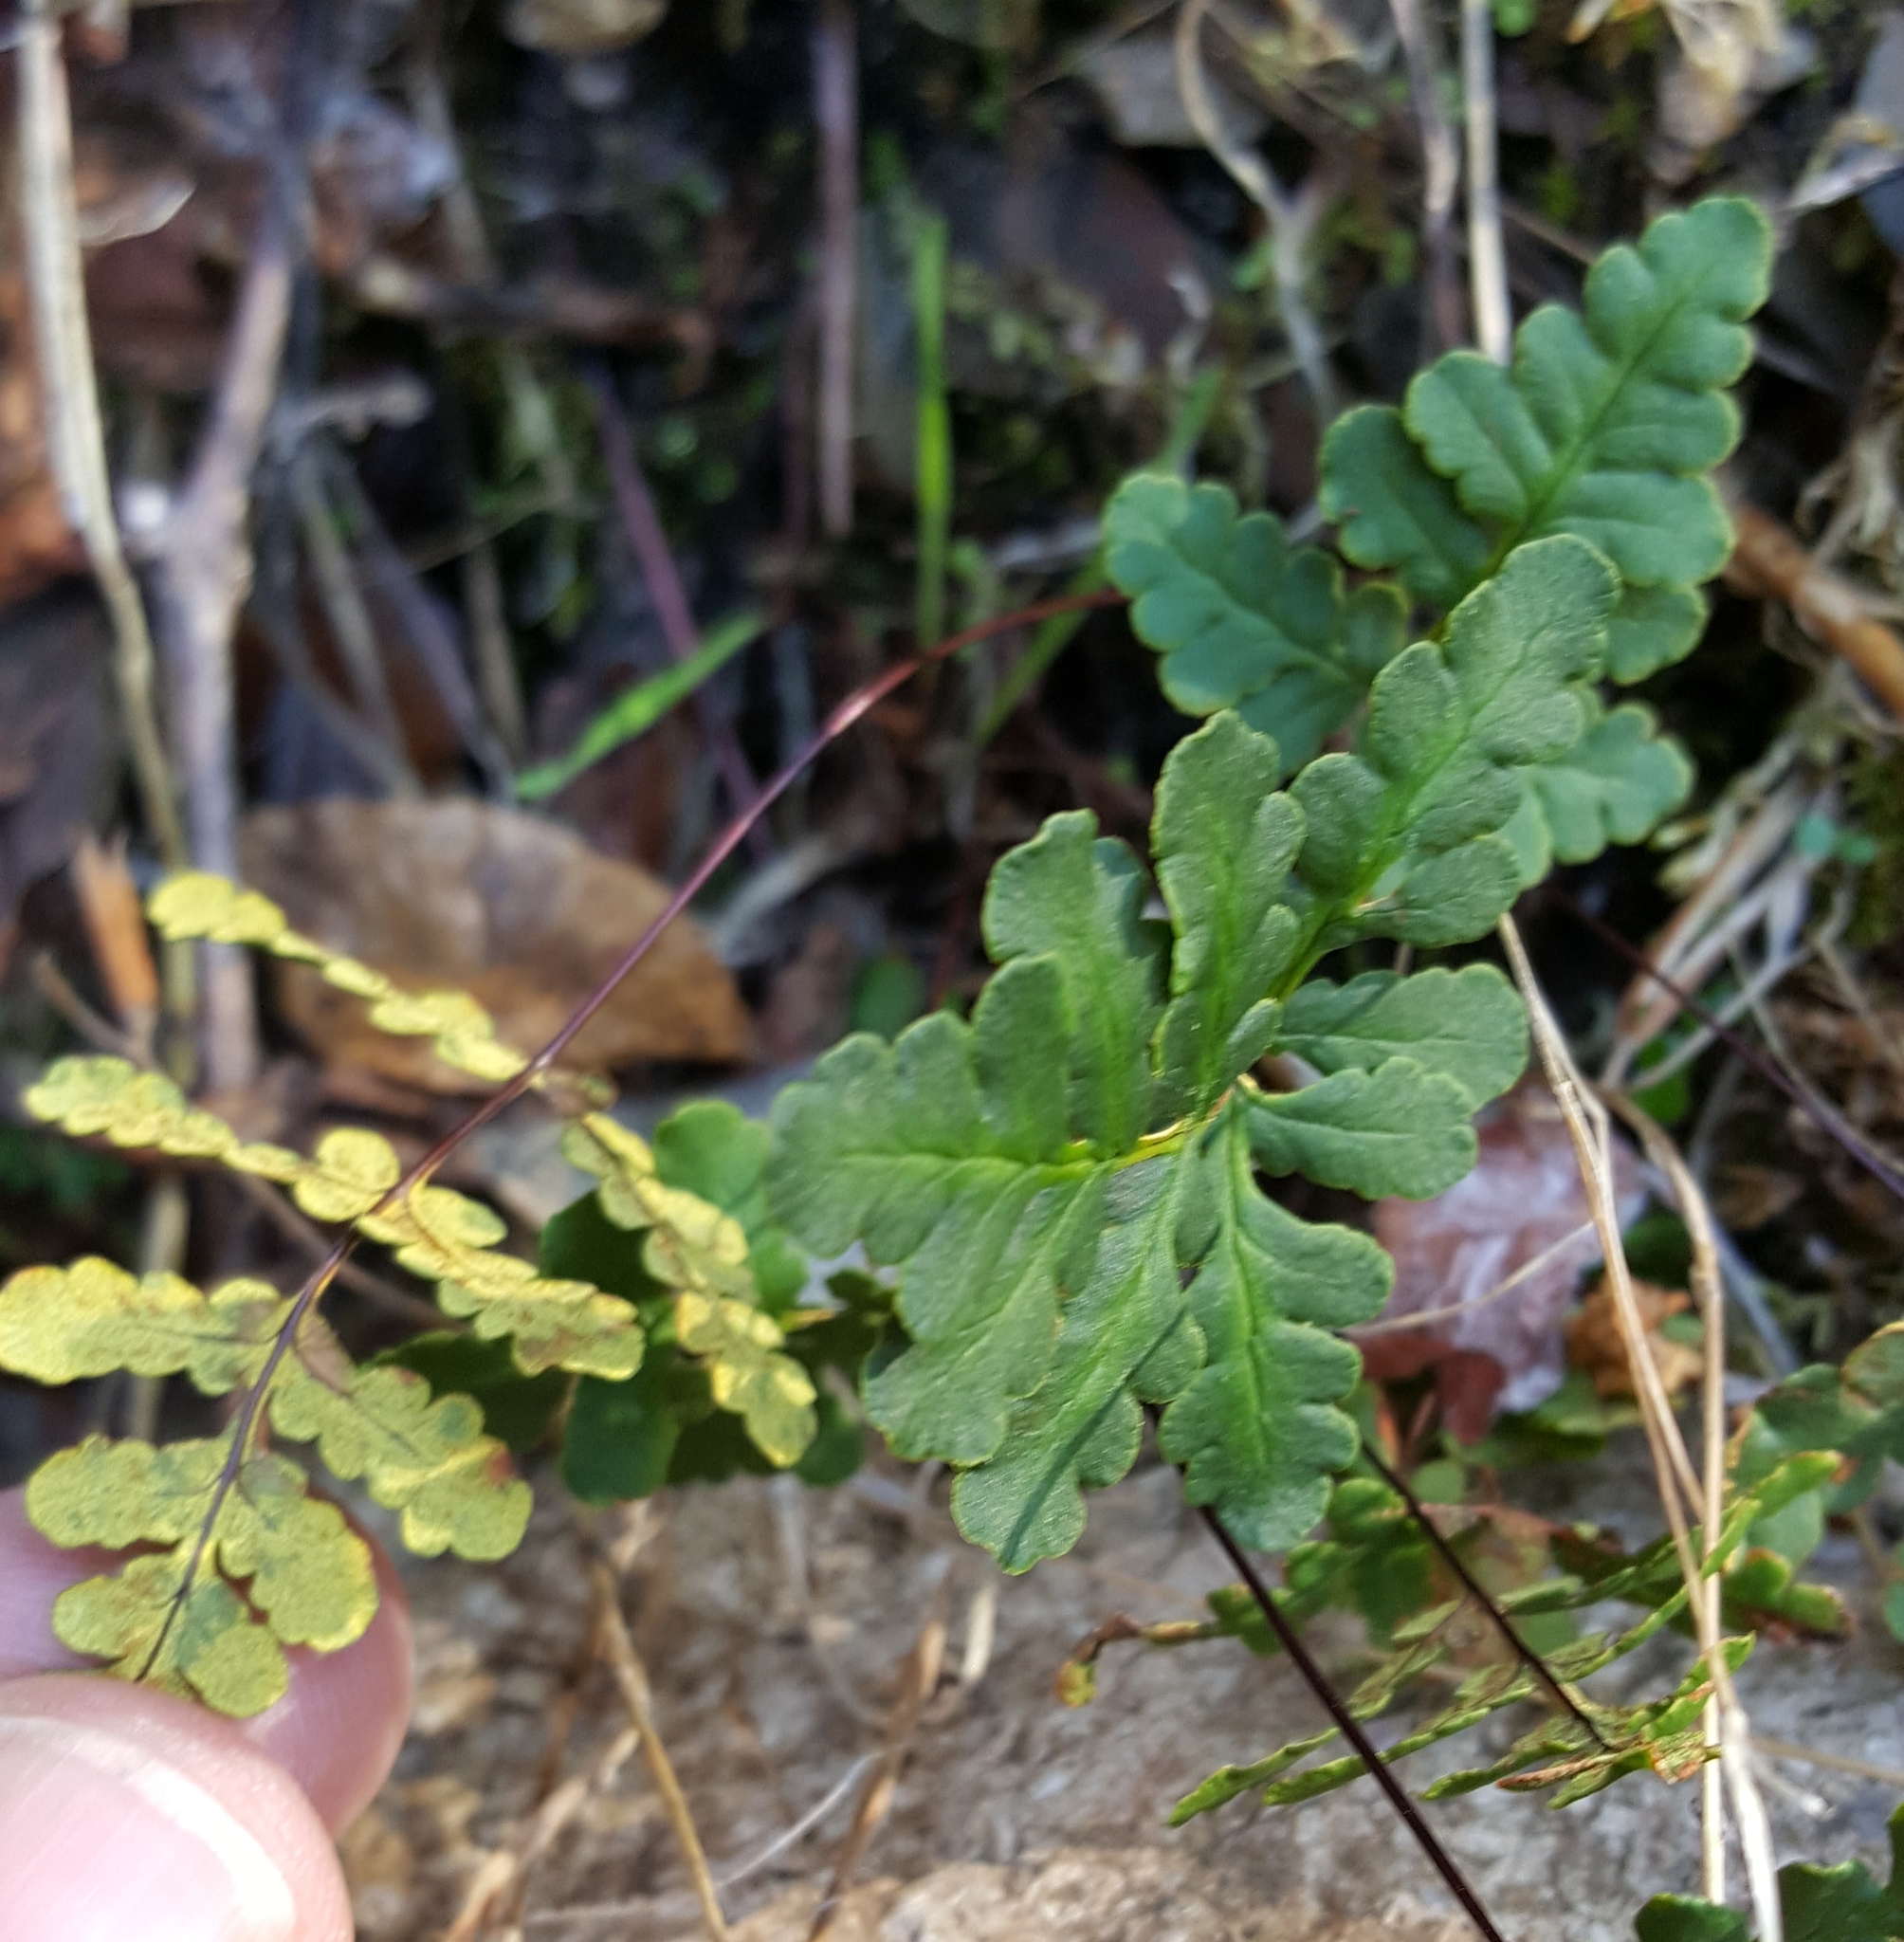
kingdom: Plantae
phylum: Tracheophyta
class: Polypodiopsida
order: Polypodiales
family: Pteridaceae
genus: Pentagramma
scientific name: Pentagramma triangularis
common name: Gold fern
